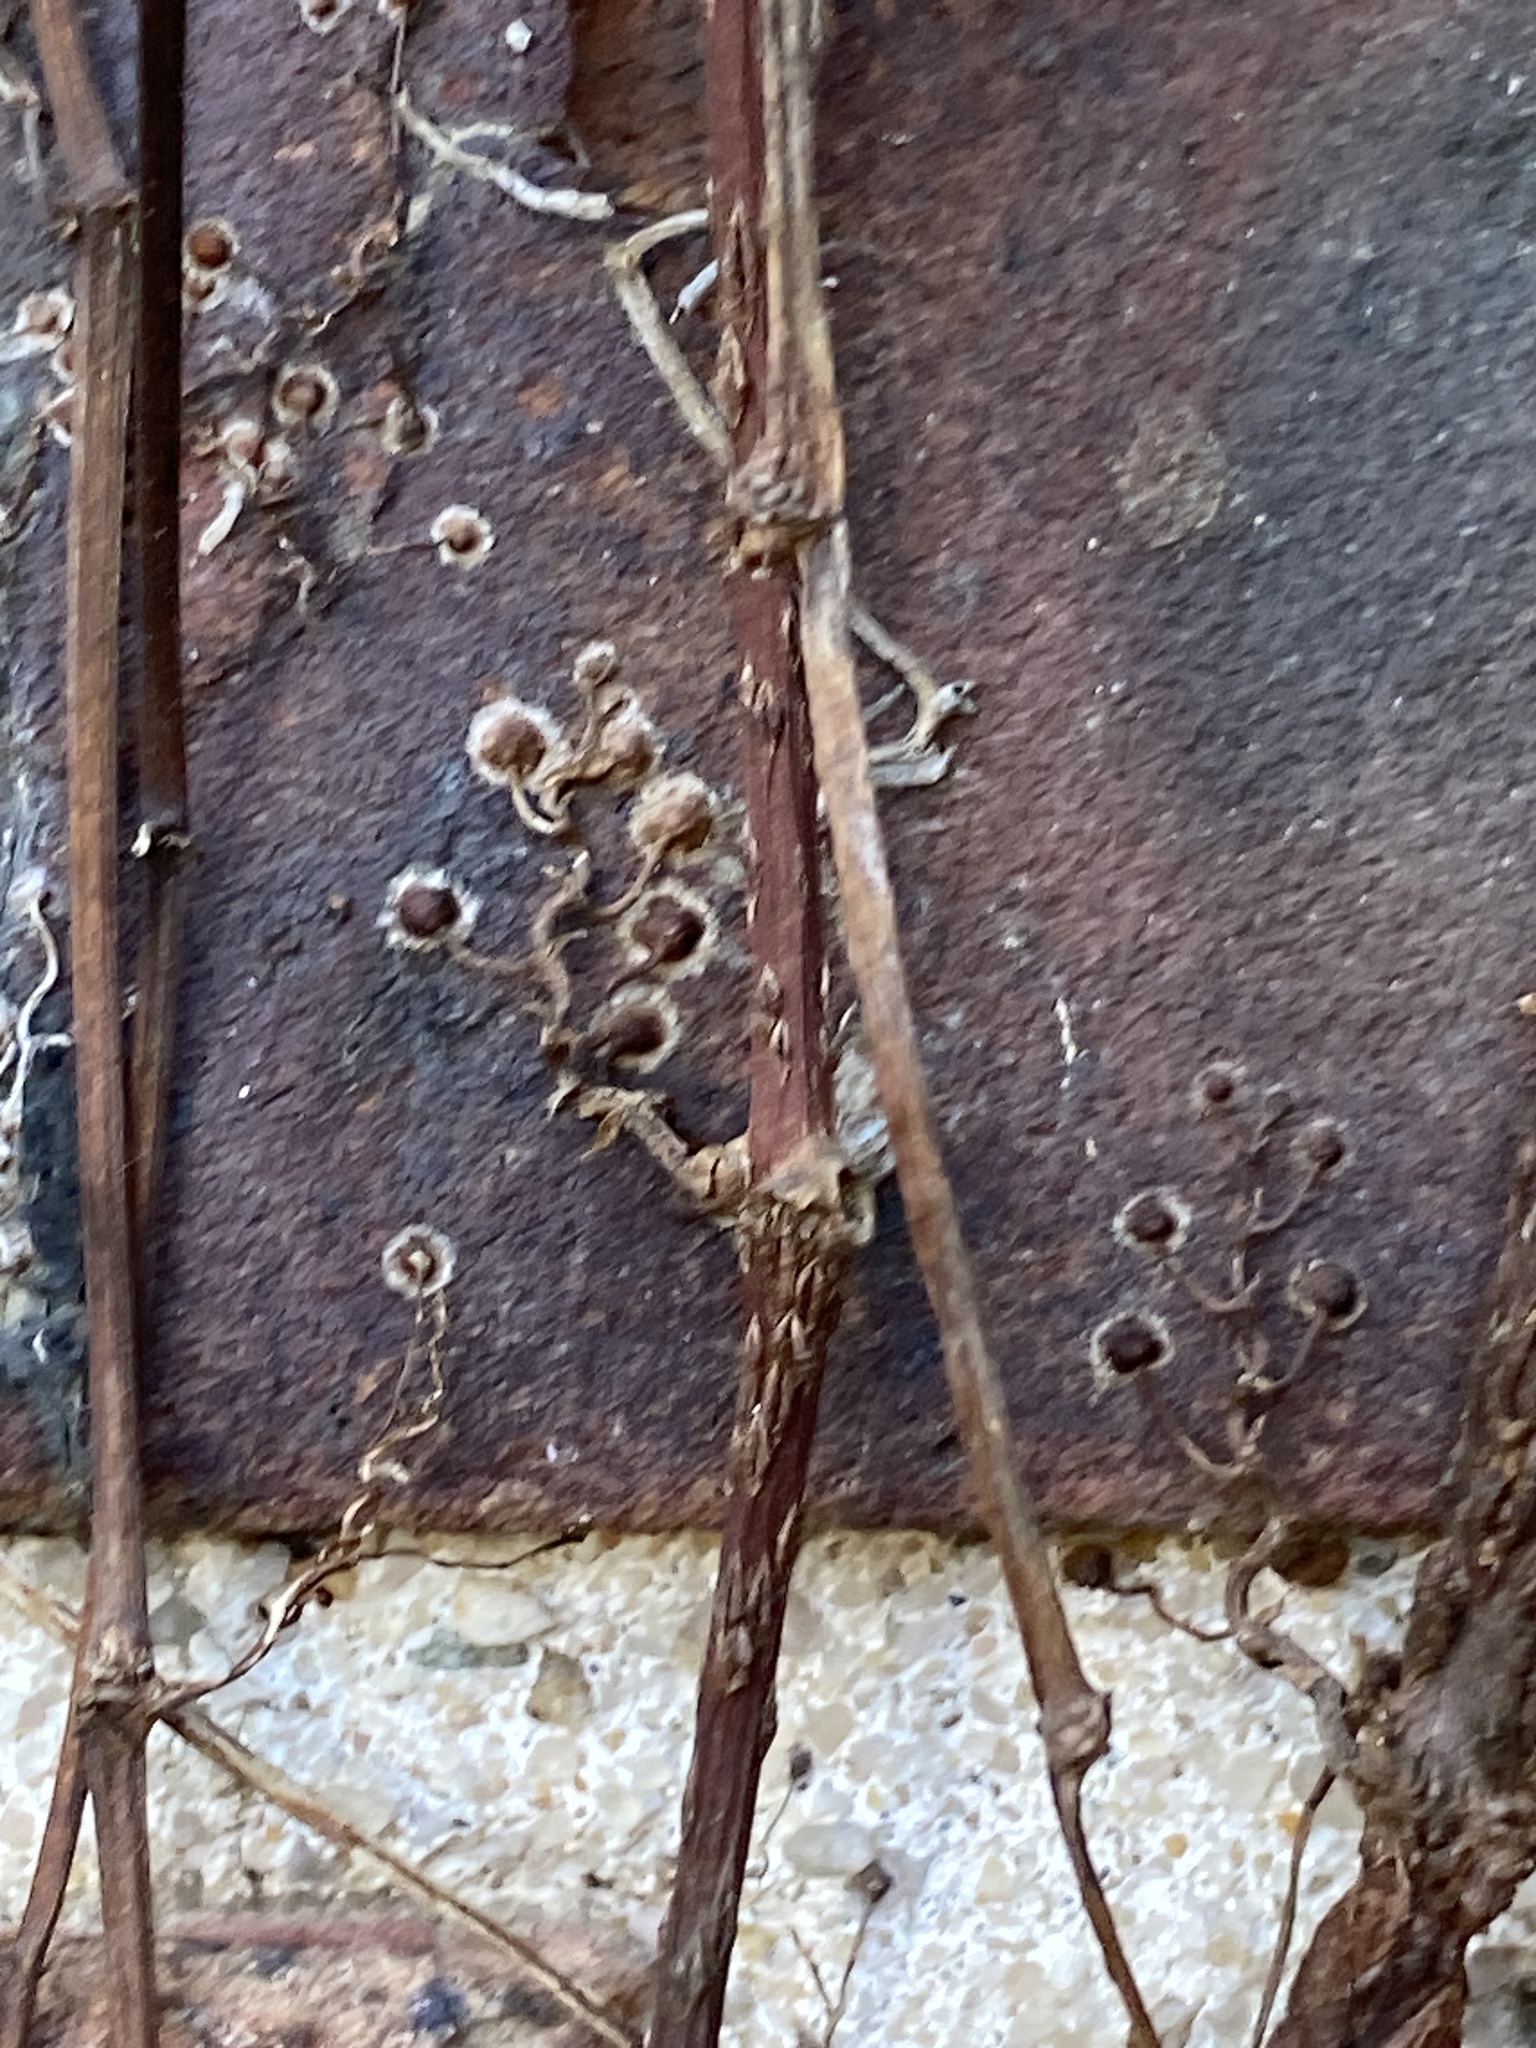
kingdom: Plantae
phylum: Tracheophyta
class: Magnoliopsida
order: Vitales
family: Vitaceae
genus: Parthenocissus
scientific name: Parthenocissus tricuspidata
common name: Boston ivy
